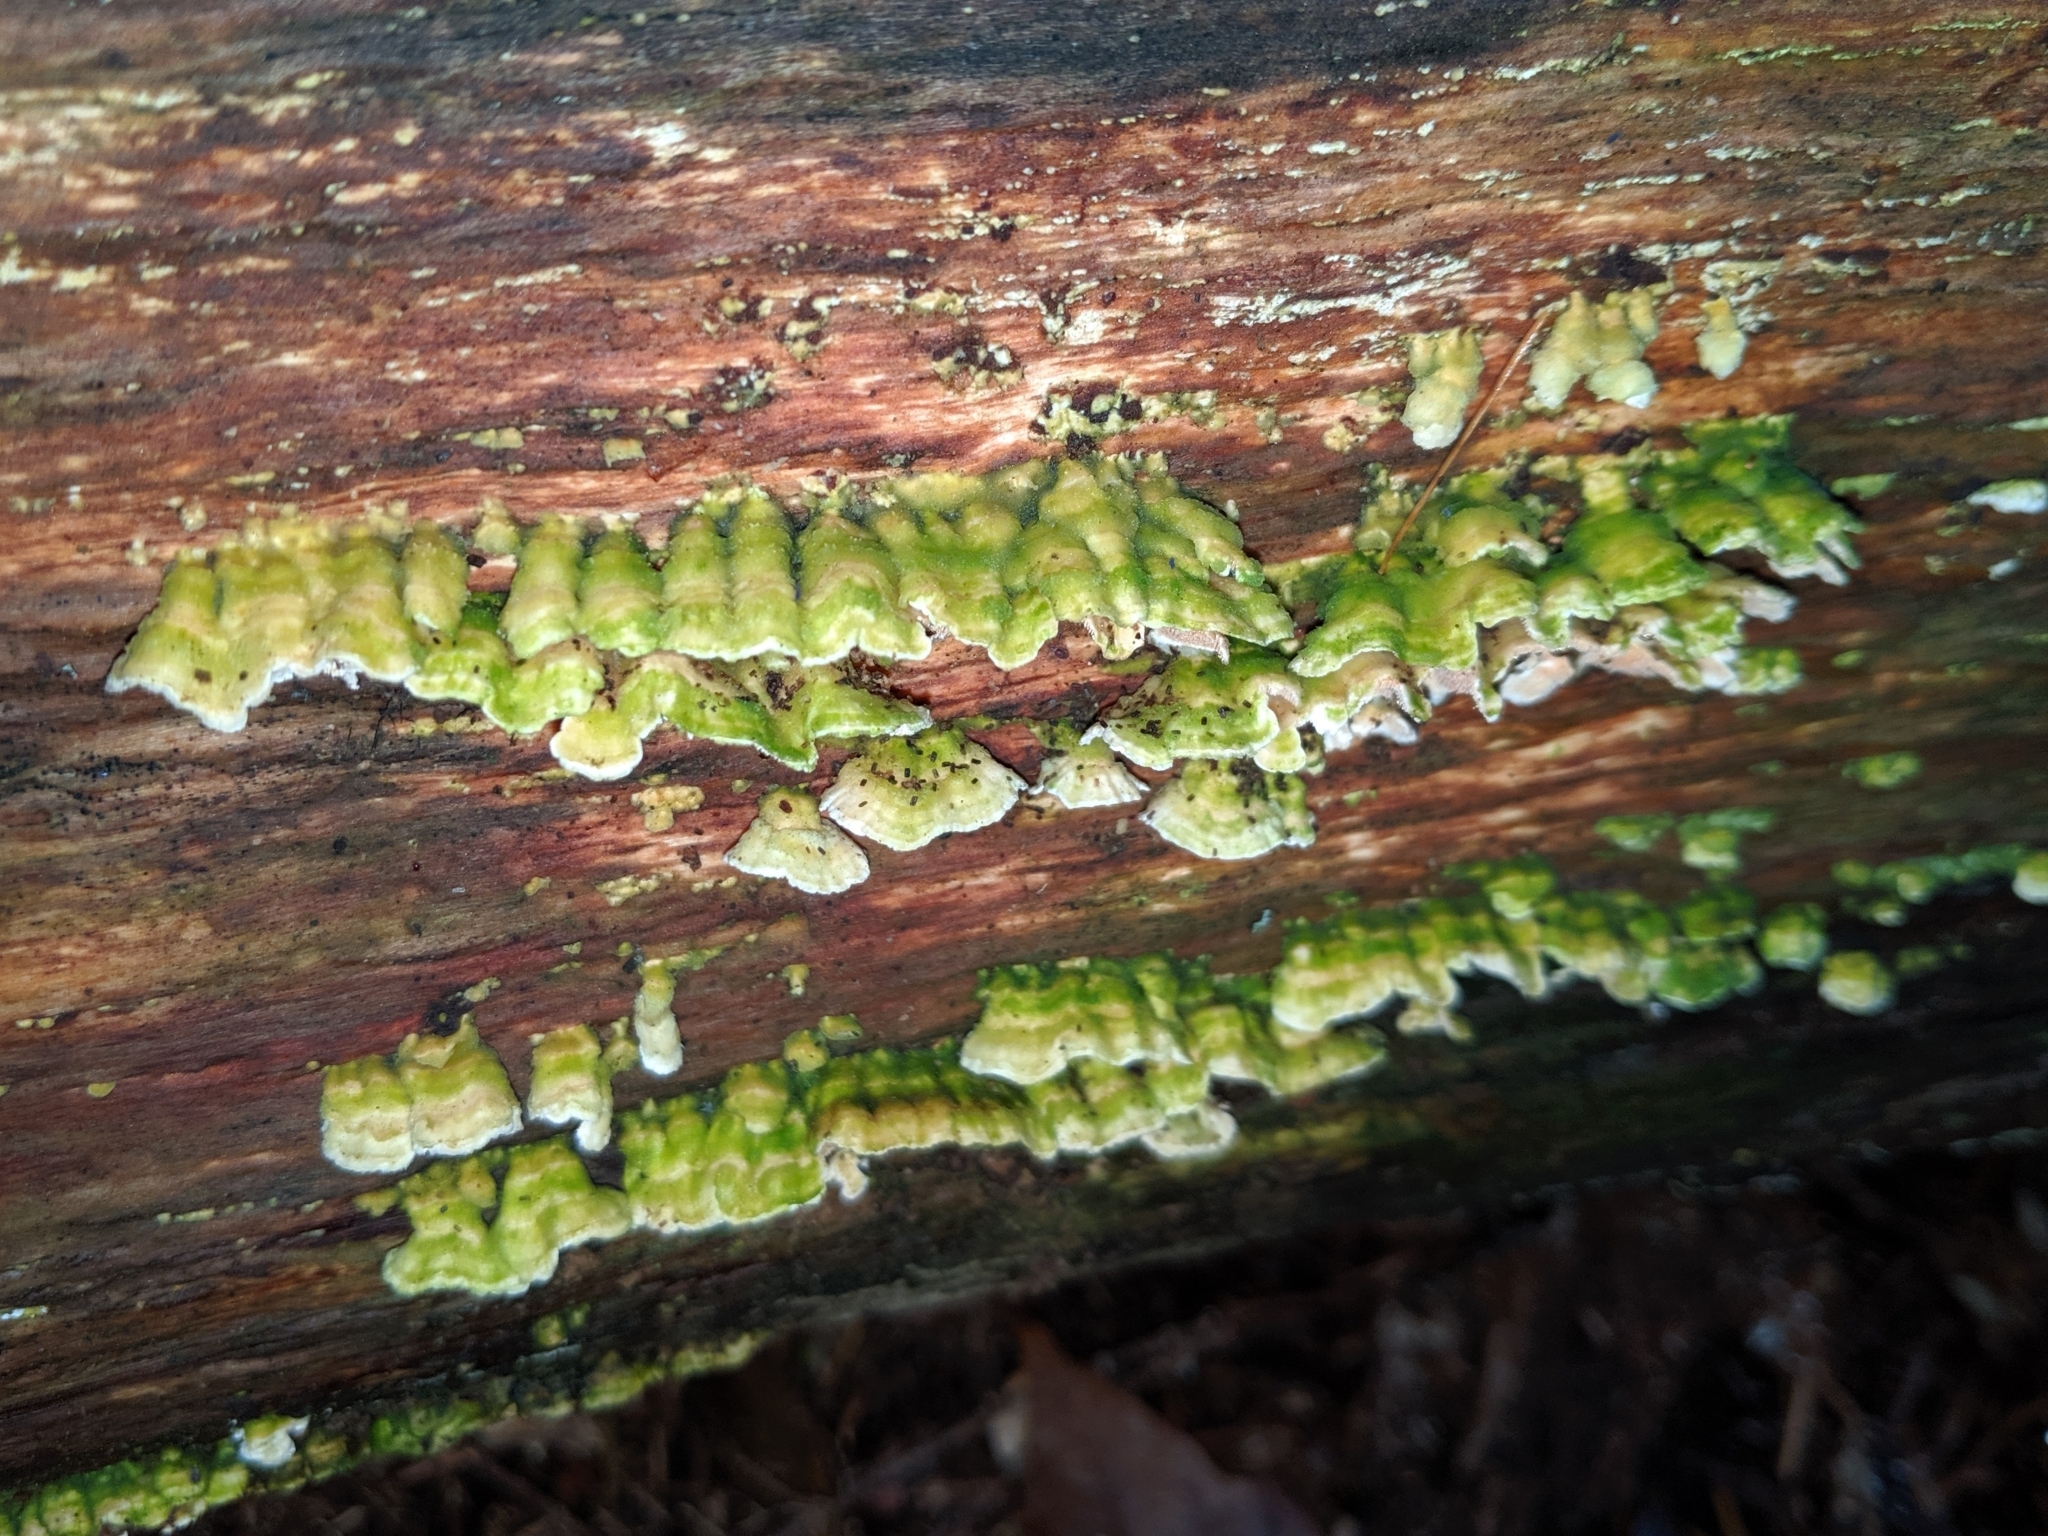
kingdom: Fungi
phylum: Basidiomycota
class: Agaricomycetes
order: Hymenochaetales
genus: Trichaptum
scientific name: Trichaptum abietinum
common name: Purplepore bracket
